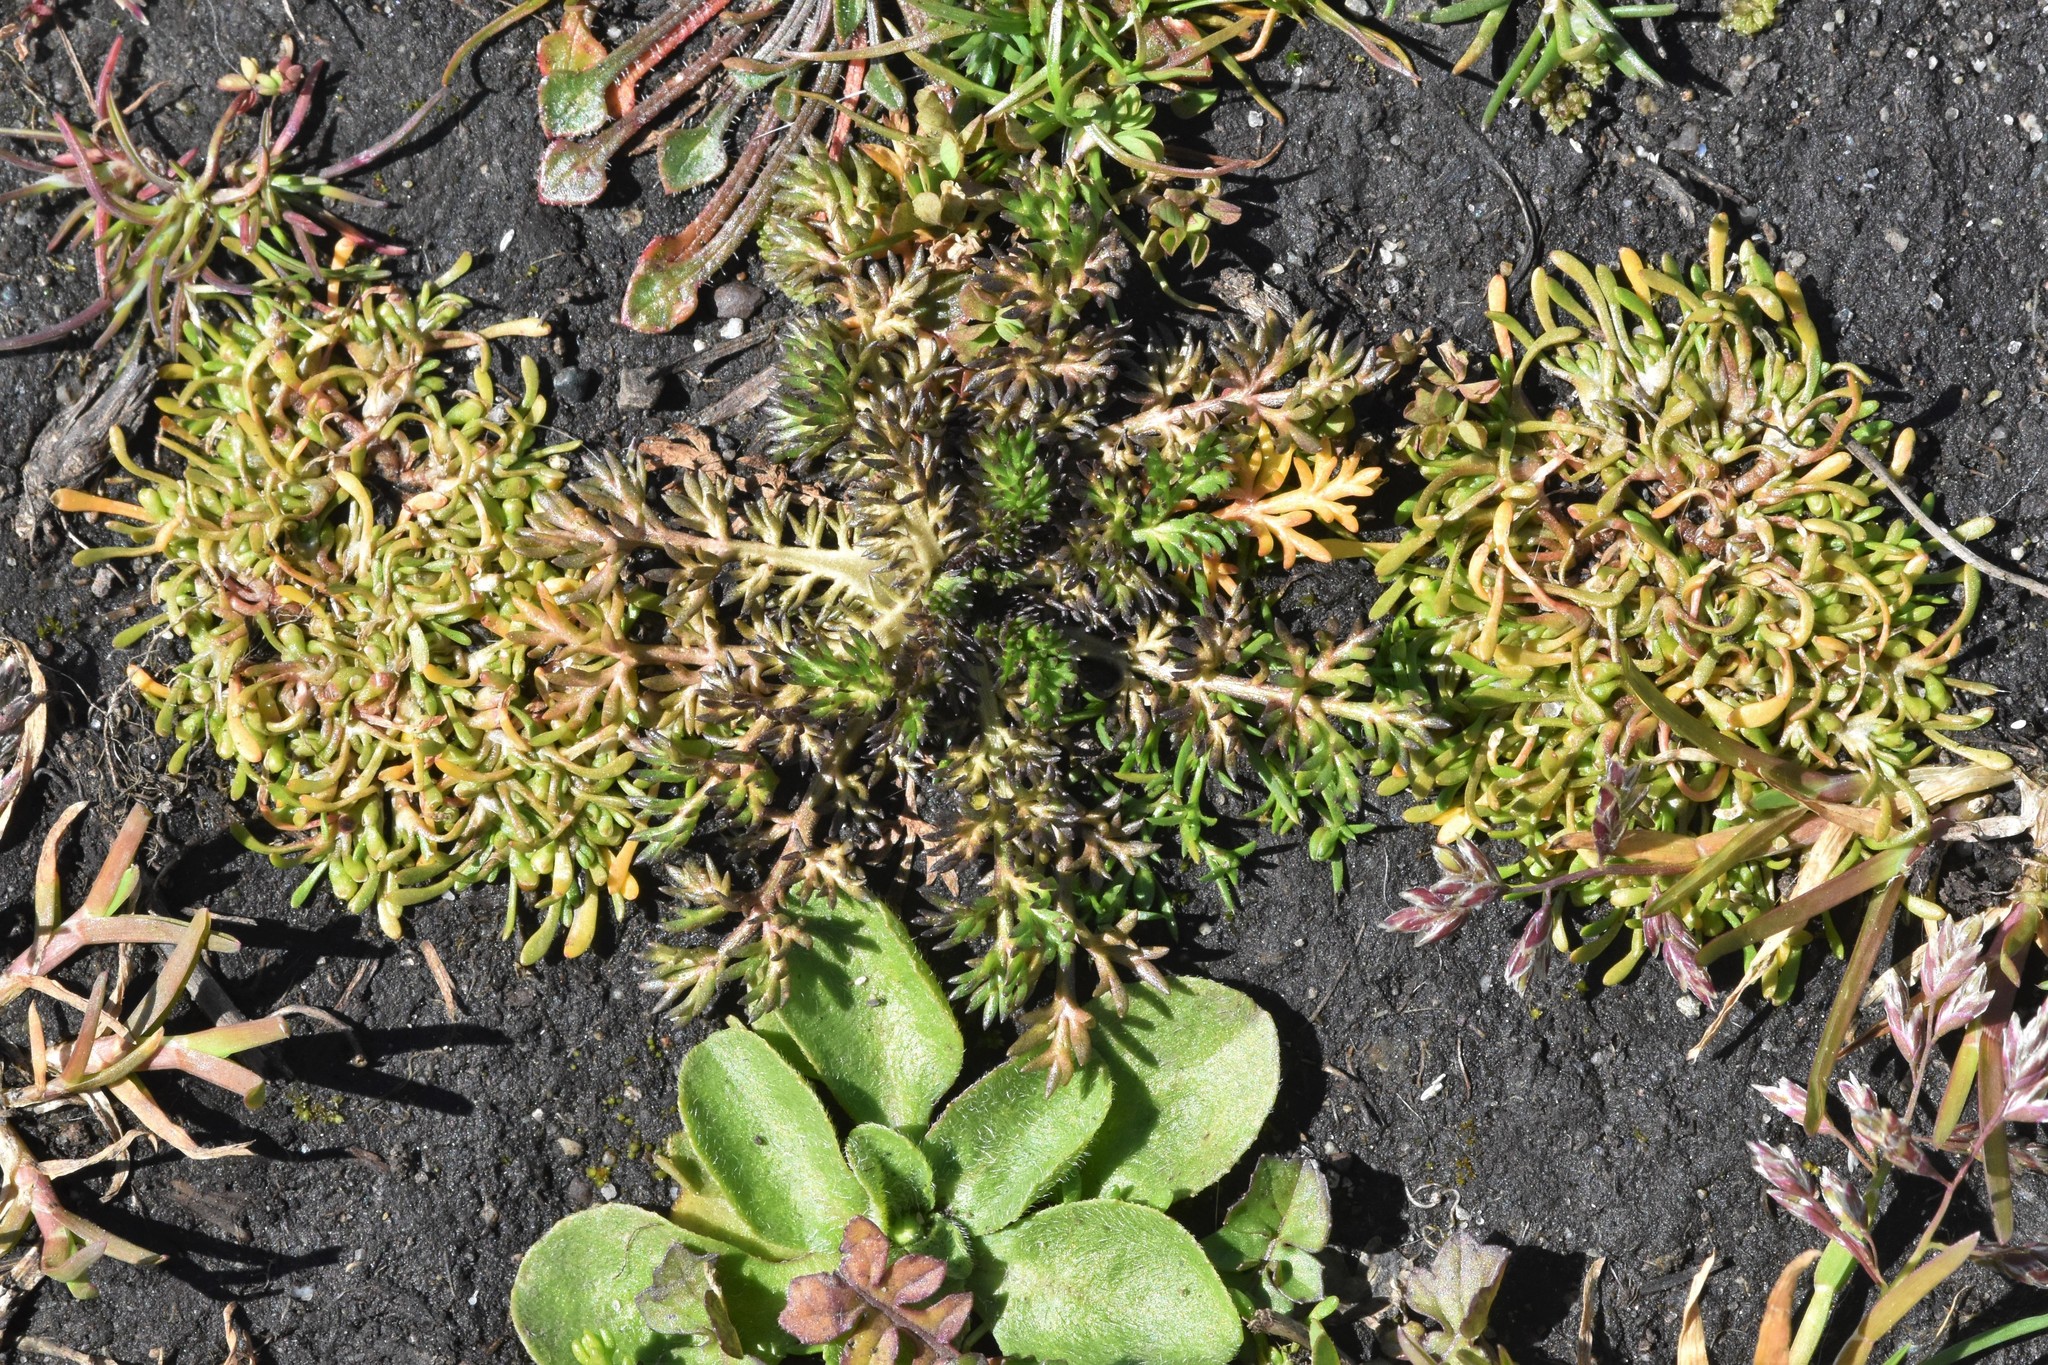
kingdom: Plantae
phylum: Tracheophyta
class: Magnoliopsida
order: Caryophyllales
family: Montiaceae
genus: Montia
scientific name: Montia howellii
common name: Howell's miner's-lettuce
